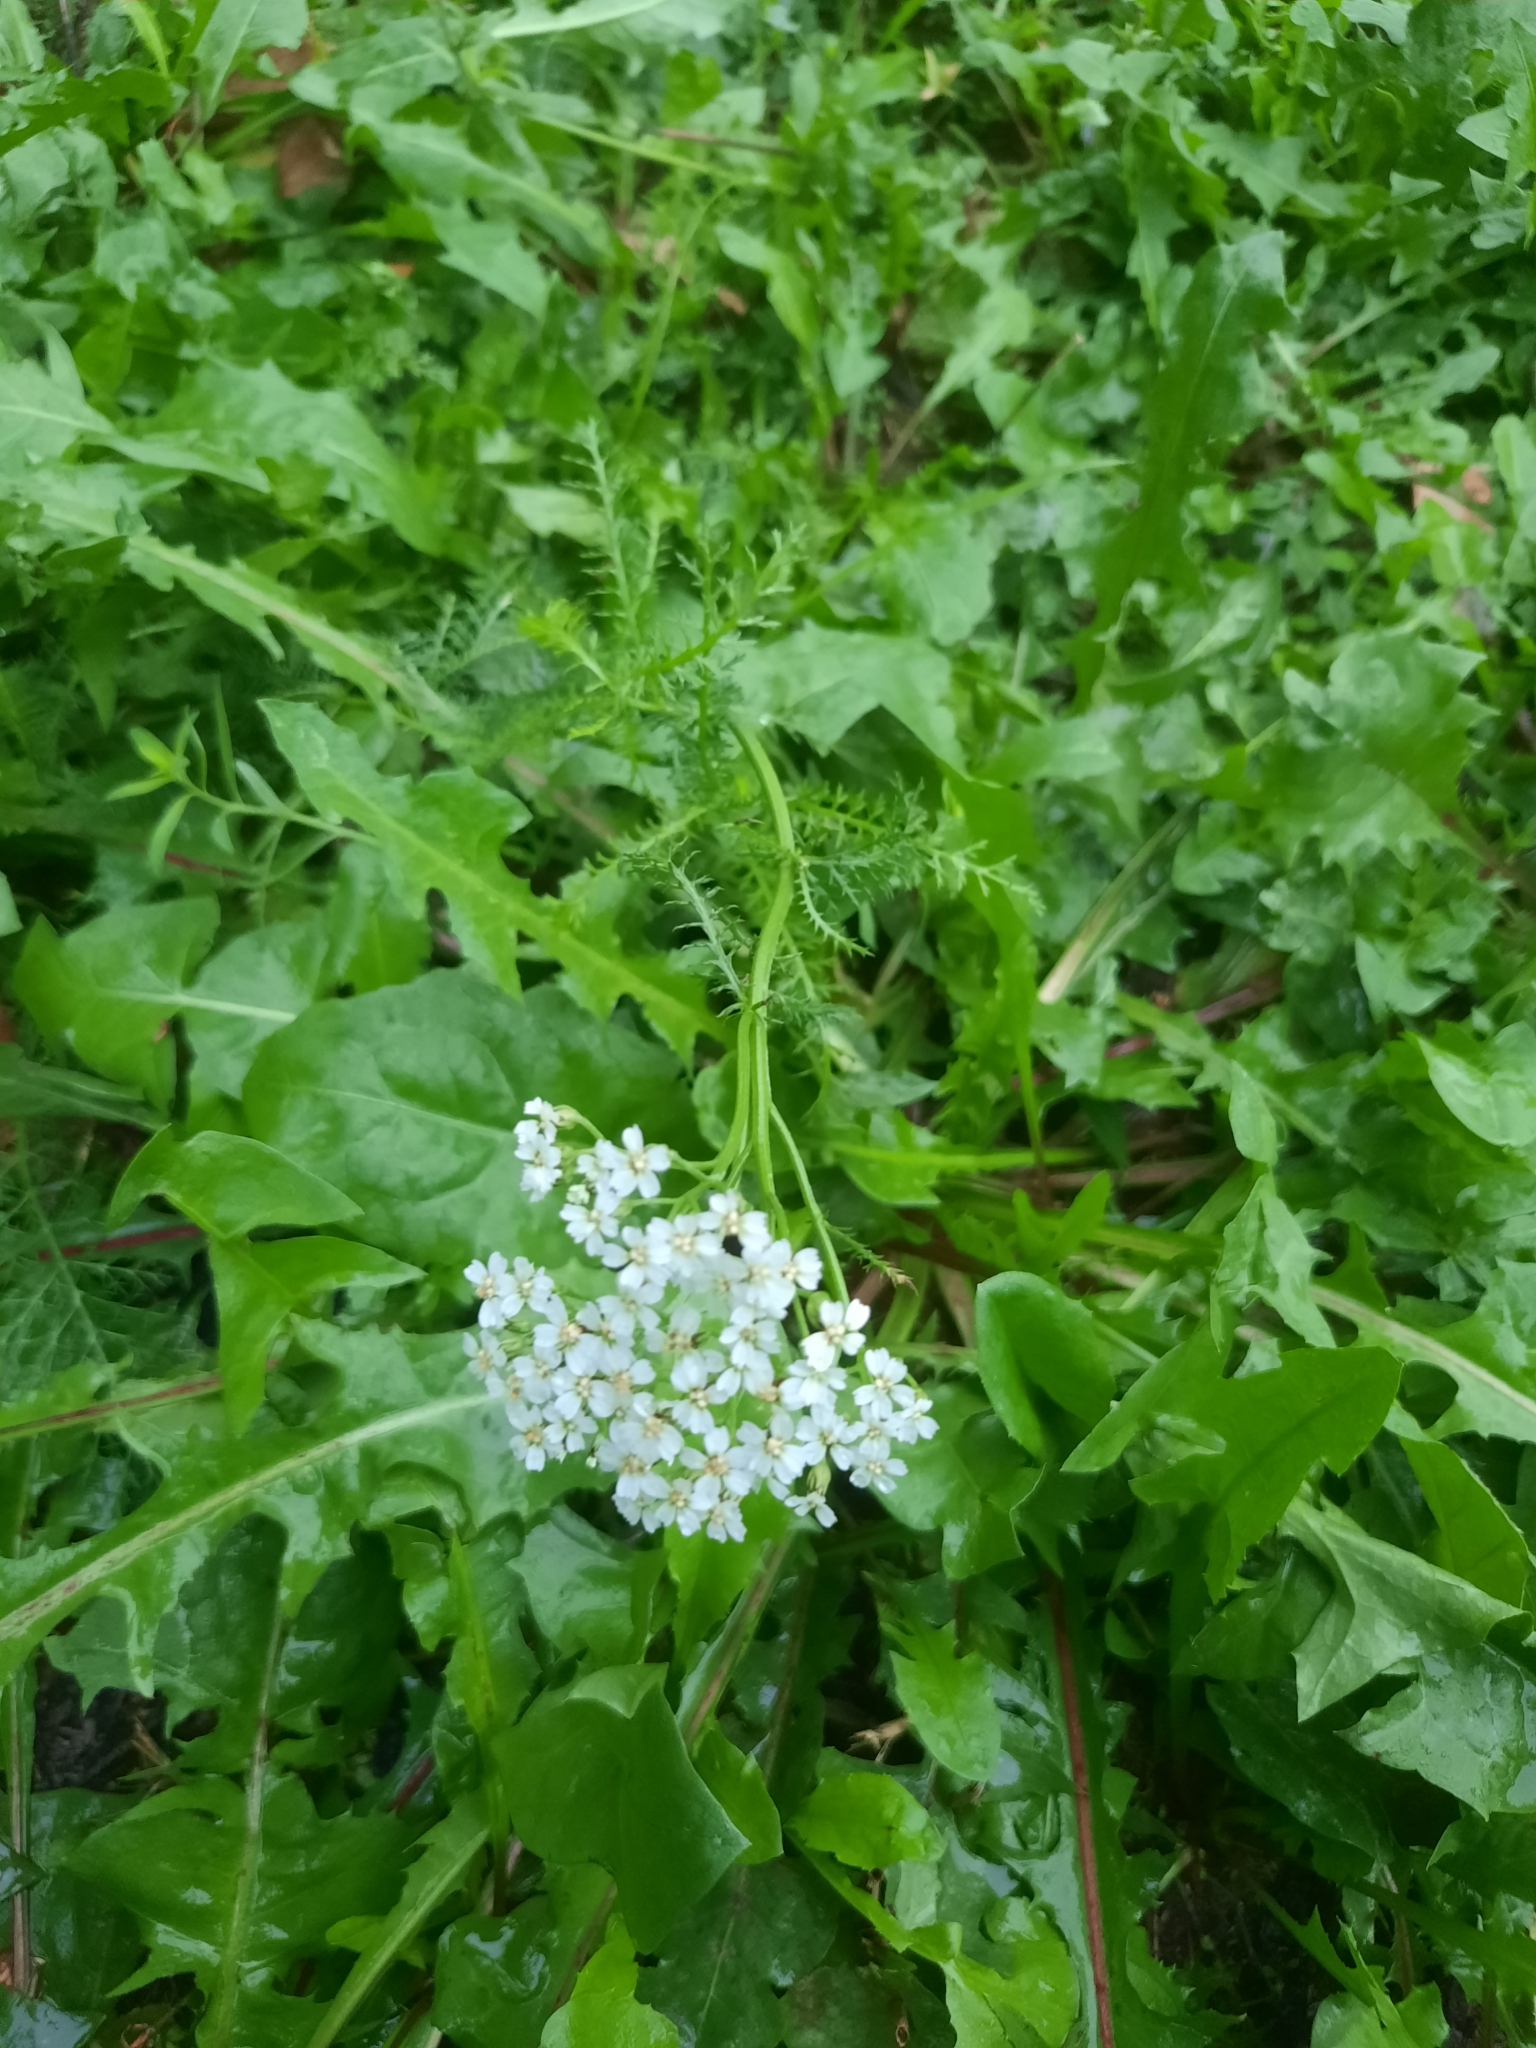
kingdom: Plantae
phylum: Tracheophyta
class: Magnoliopsida
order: Asterales
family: Asteraceae
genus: Achillea
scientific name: Achillea millefolium
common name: Yarrow
